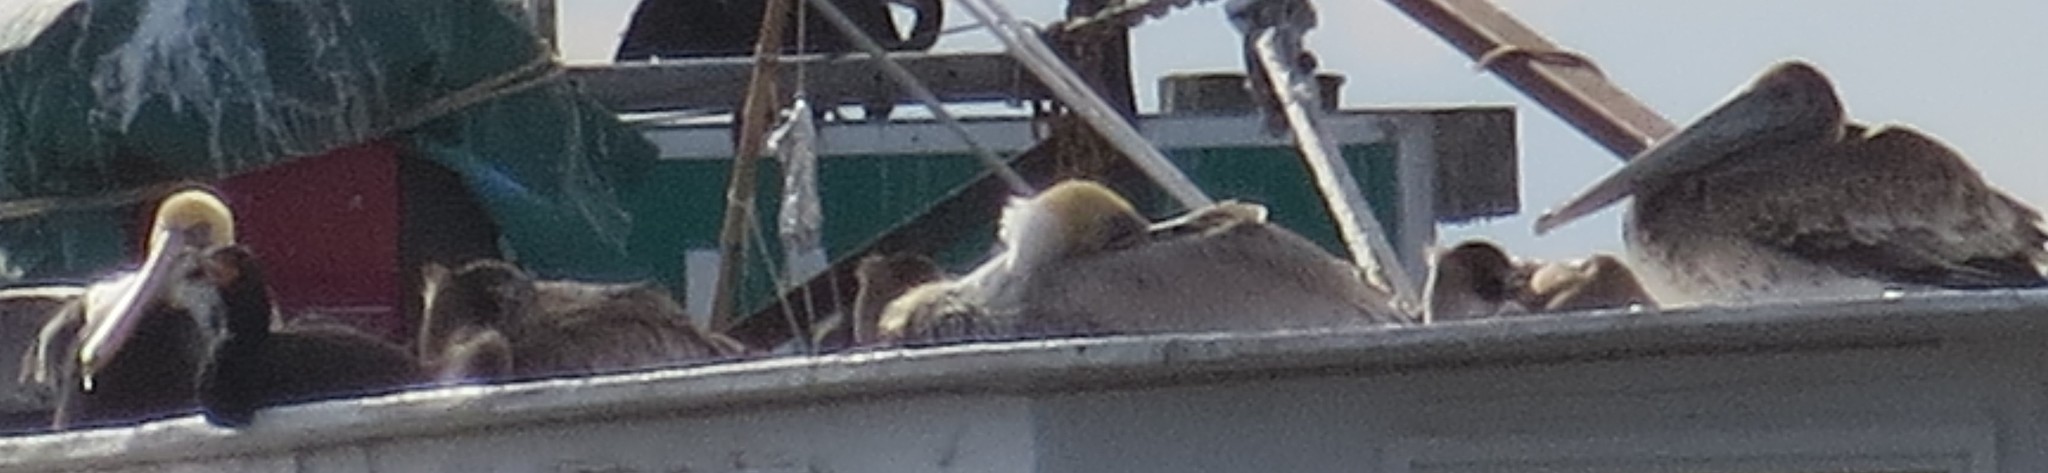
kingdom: Animalia
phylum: Chordata
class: Aves
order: Suliformes
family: Phalacrocoracidae
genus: Phalacrocorax
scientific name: Phalacrocorax auritus
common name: Double-crested cormorant
